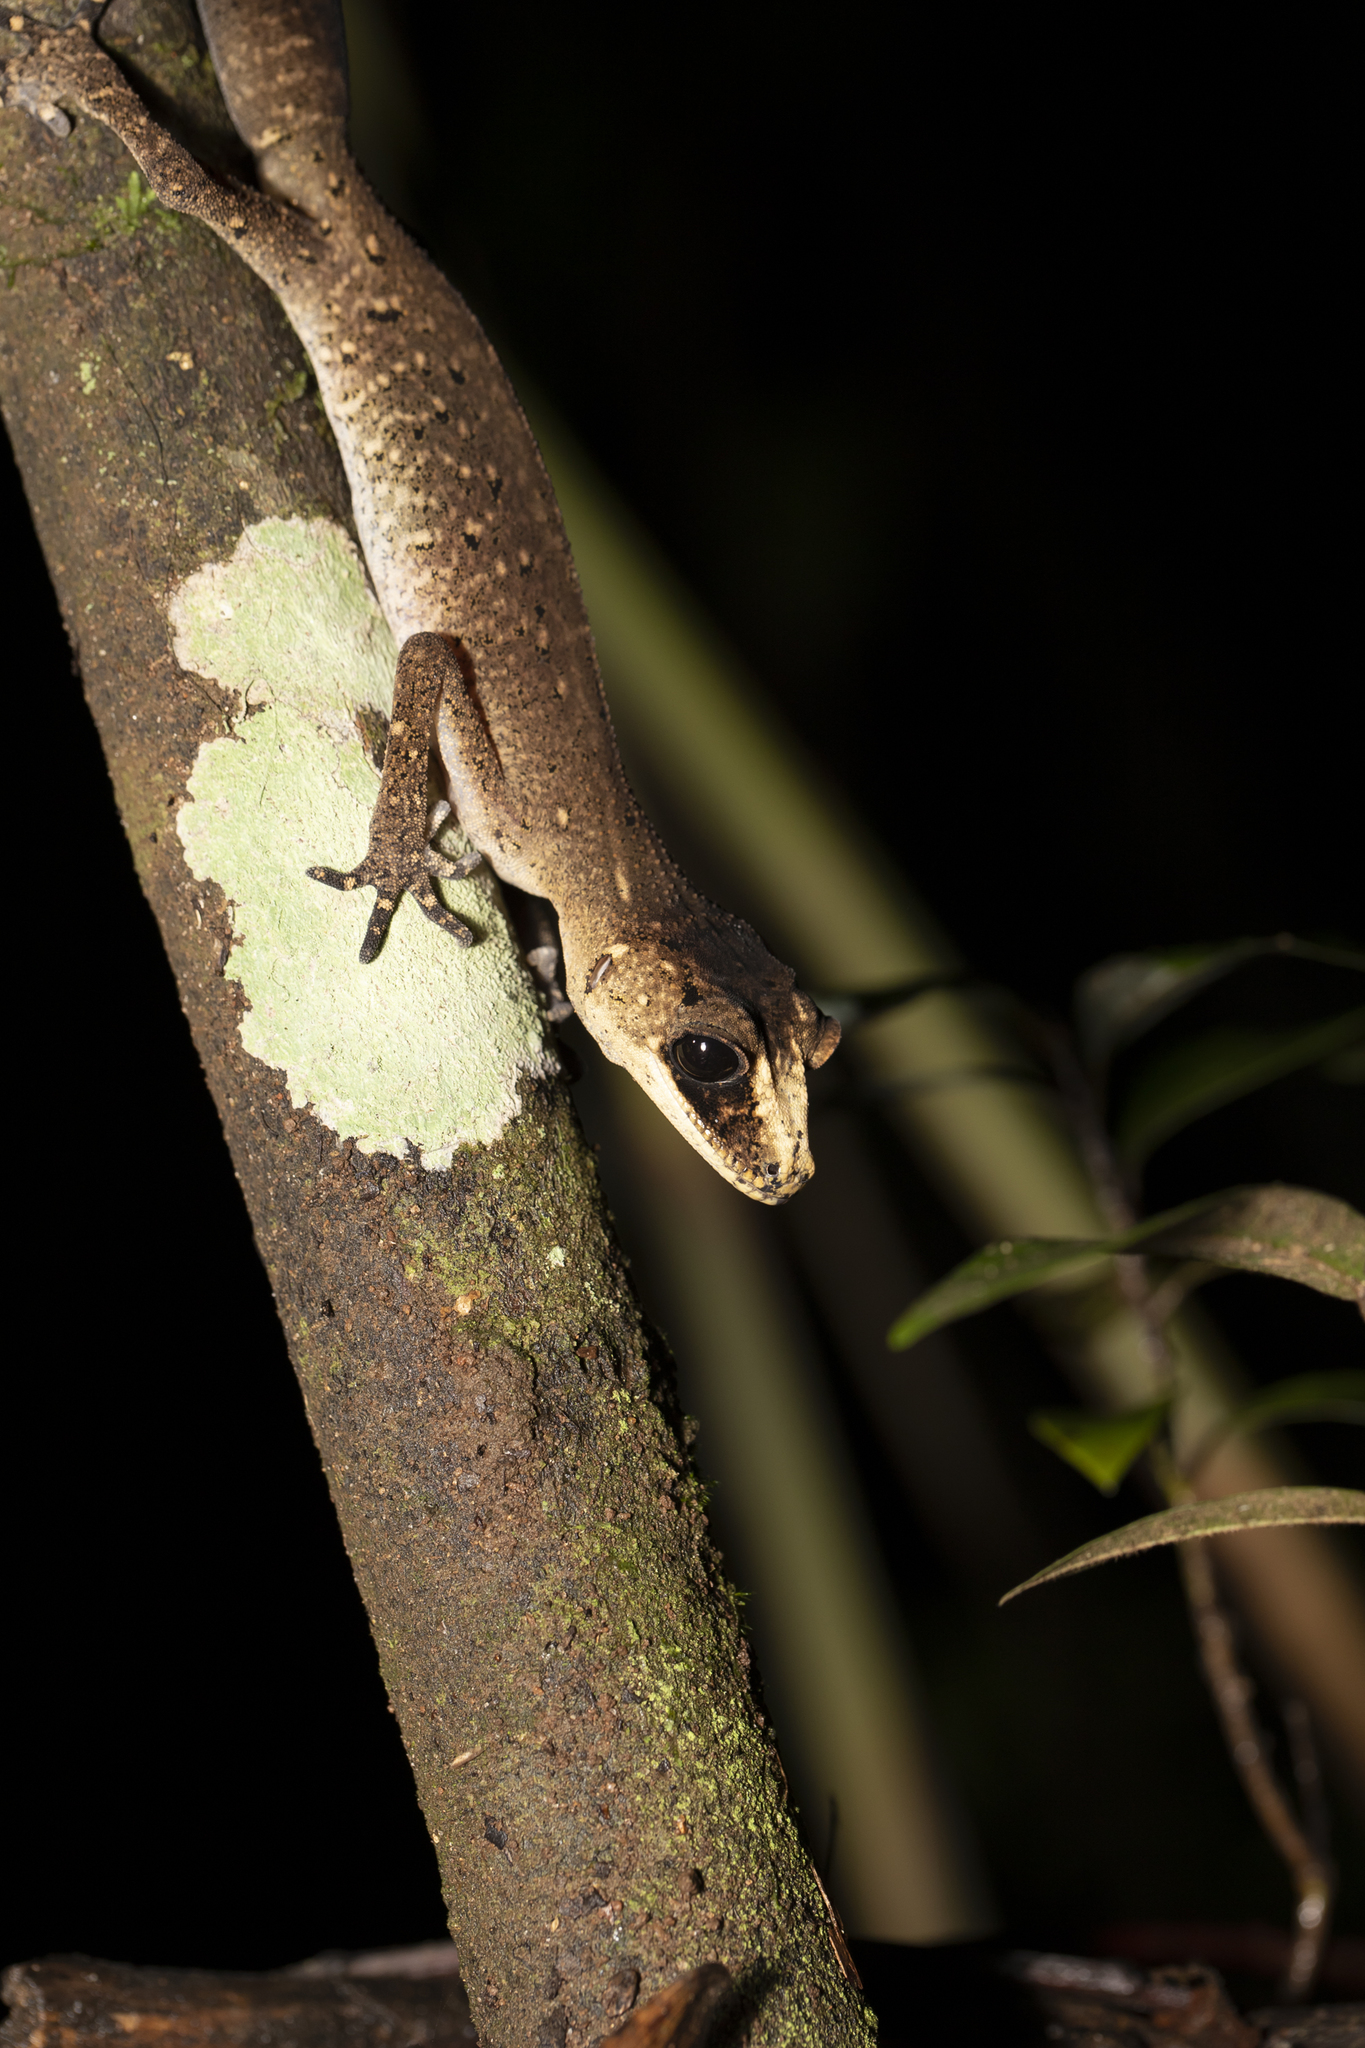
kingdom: Animalia
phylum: Chordata
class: Squamata
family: Carphodactylidae
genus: Carphodactylus
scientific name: Carphodactylus laevis
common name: Chameleon gecko
